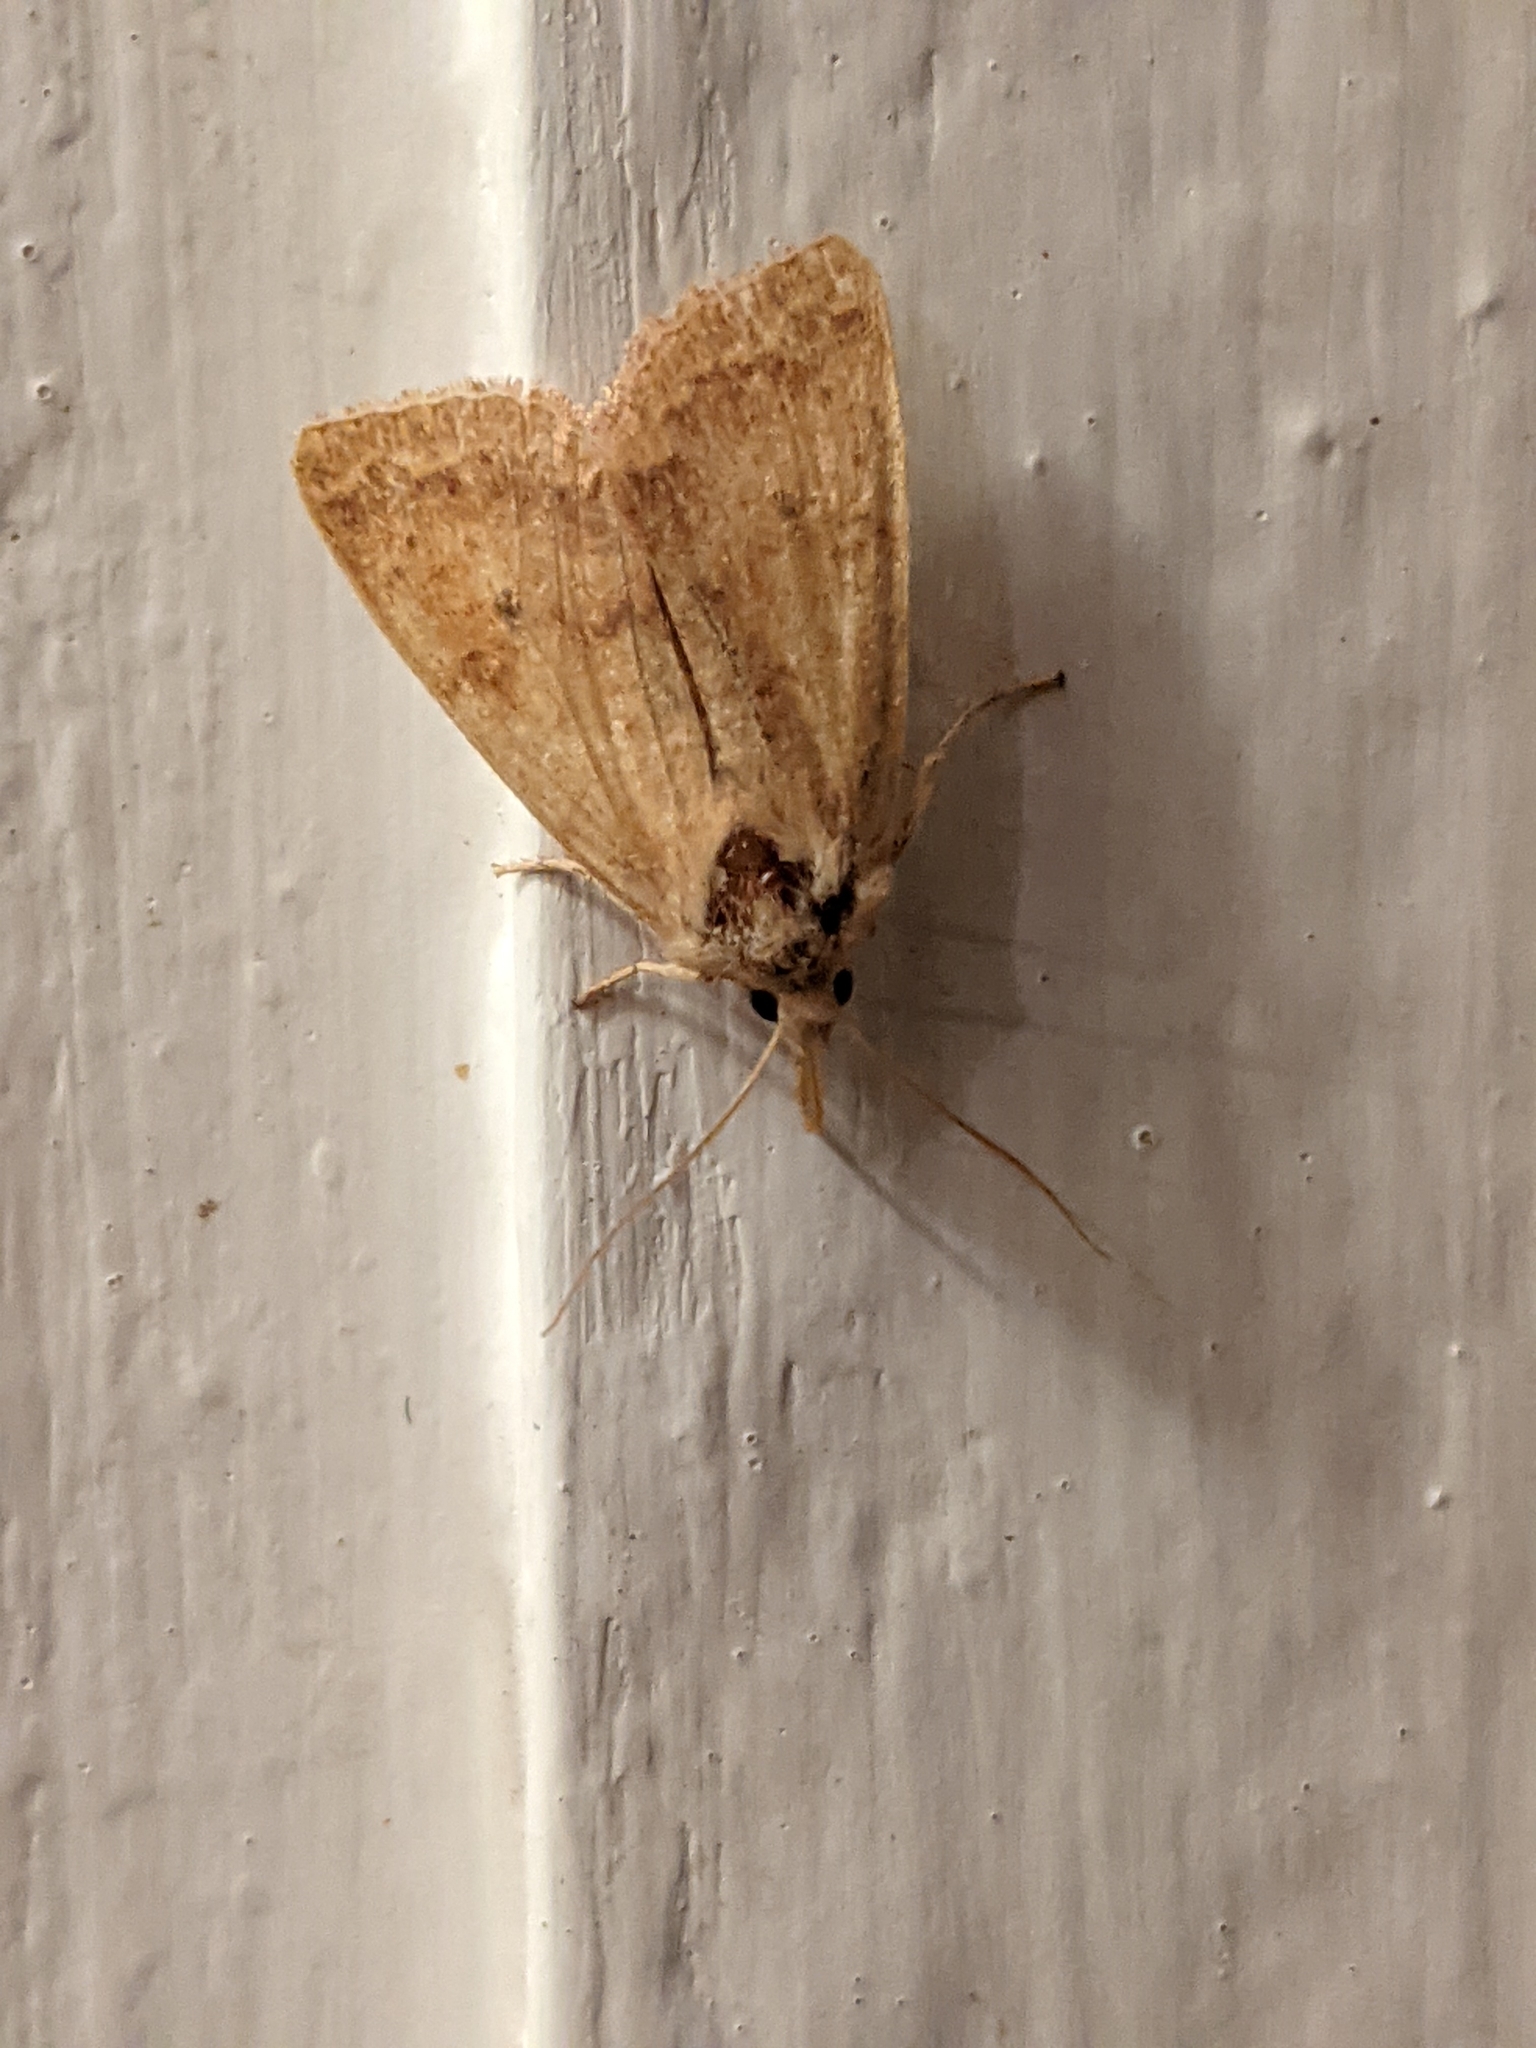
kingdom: Animalia
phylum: Arthropoda
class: Insecta
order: Lepidoptera
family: Noctuidae
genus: Agrochola
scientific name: Agrochola bicolorago
